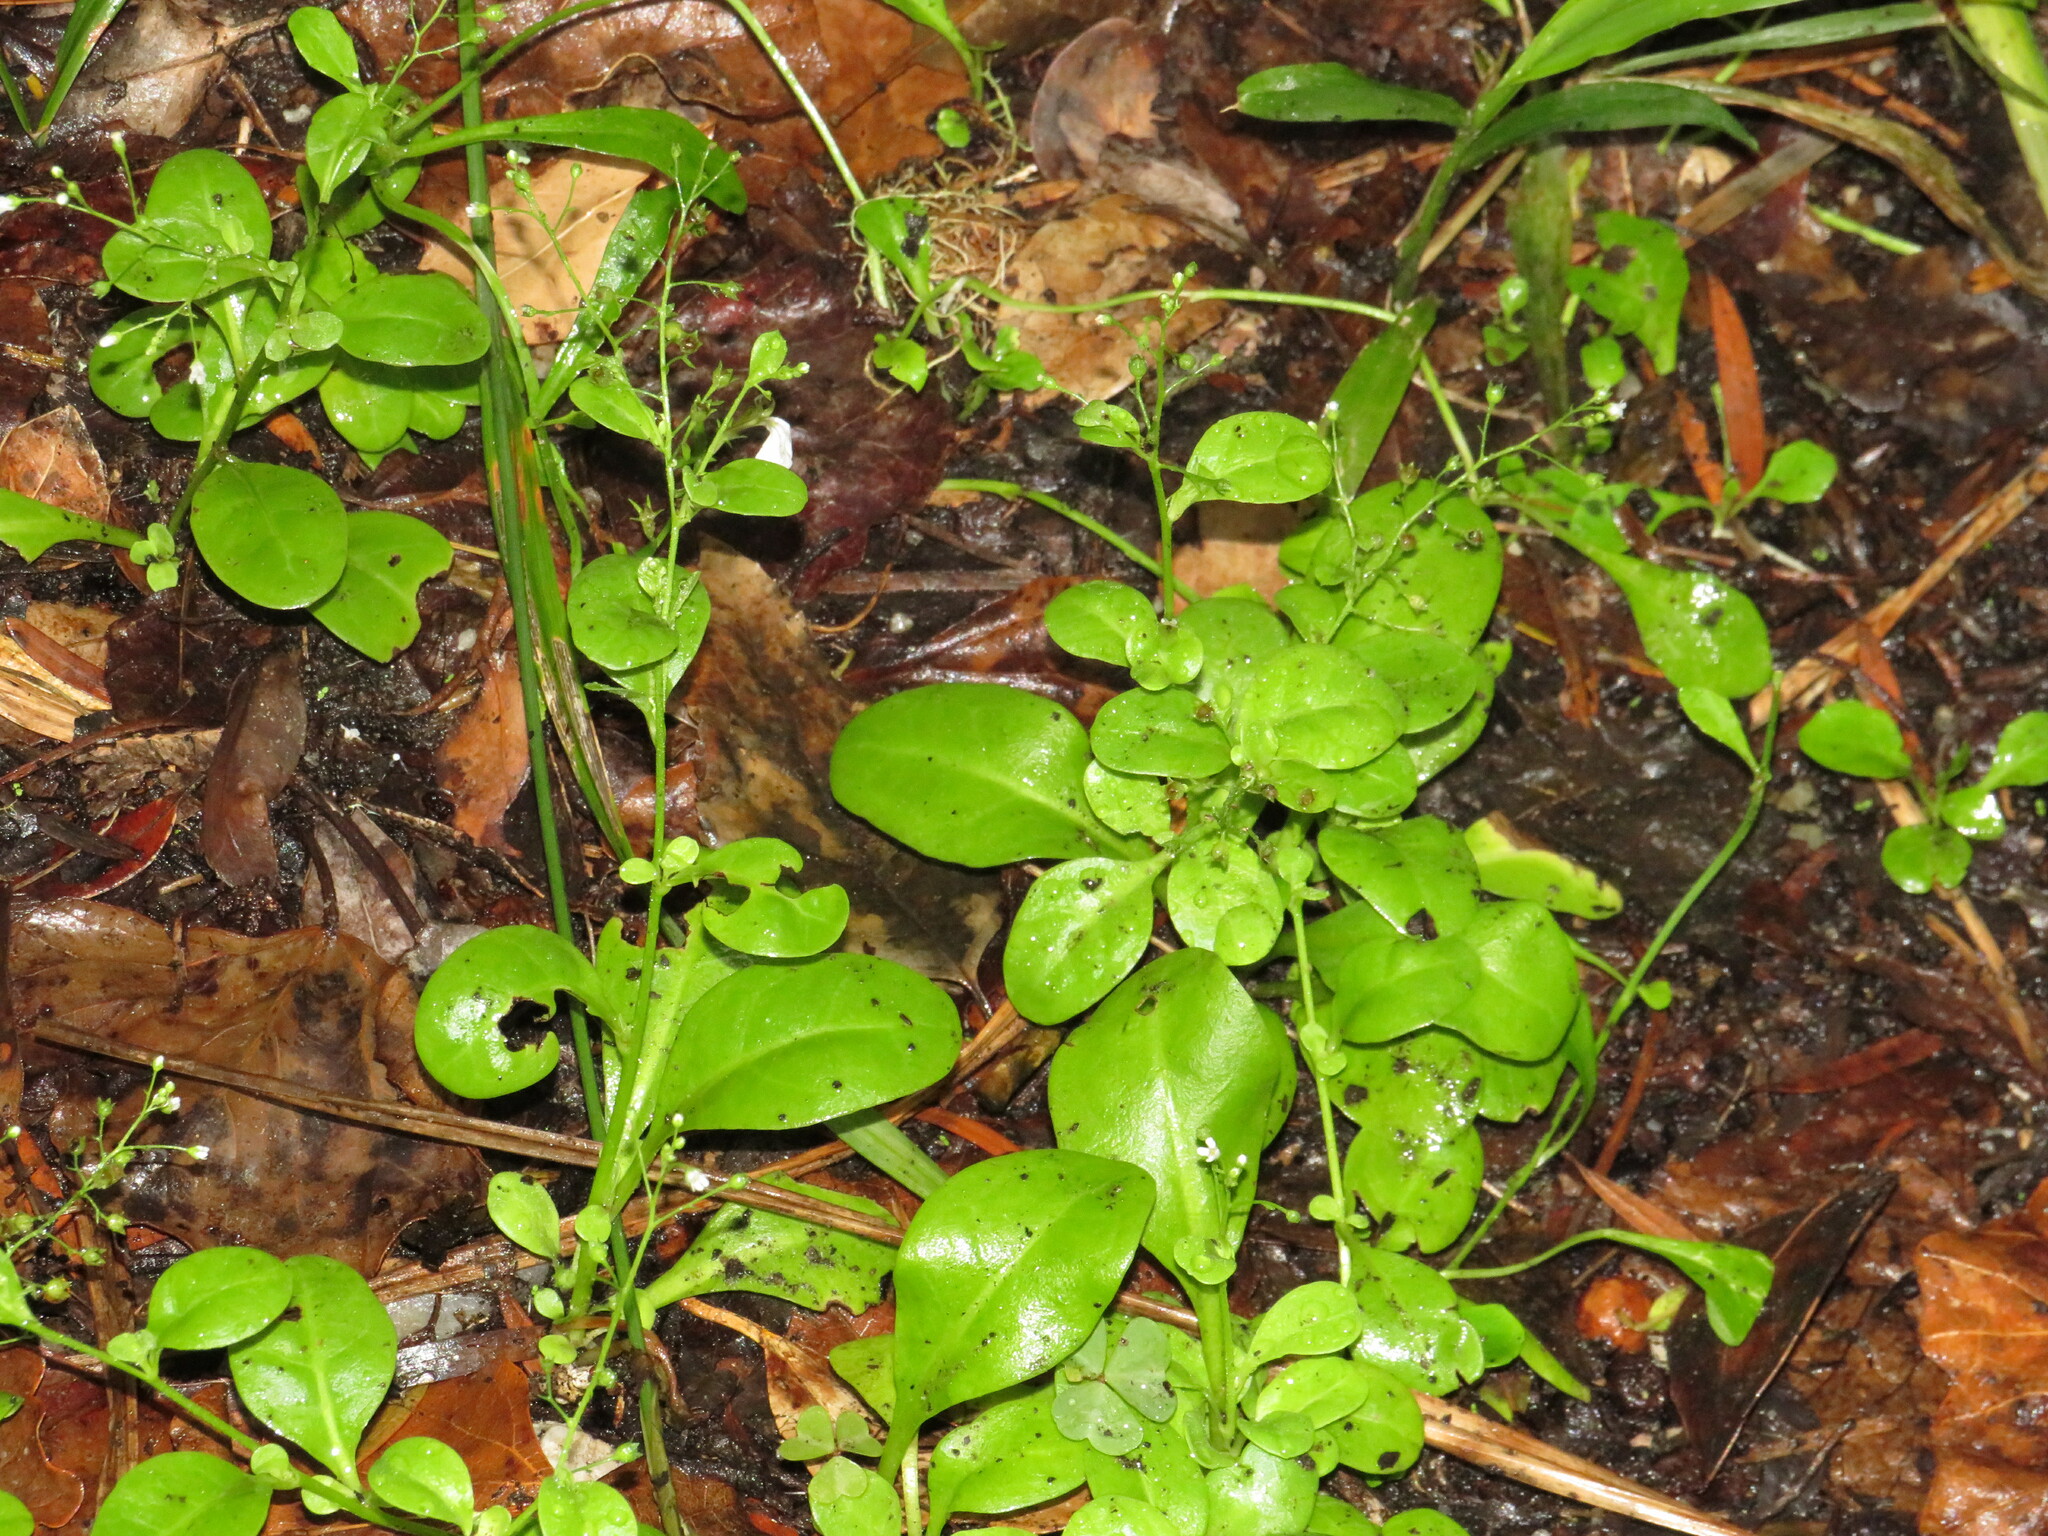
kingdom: Plantae
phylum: Tracheophyta
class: Magnoliopsida
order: Ericales
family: Primulaceae
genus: Samolus
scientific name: Samolus valerandi
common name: Brookweed
